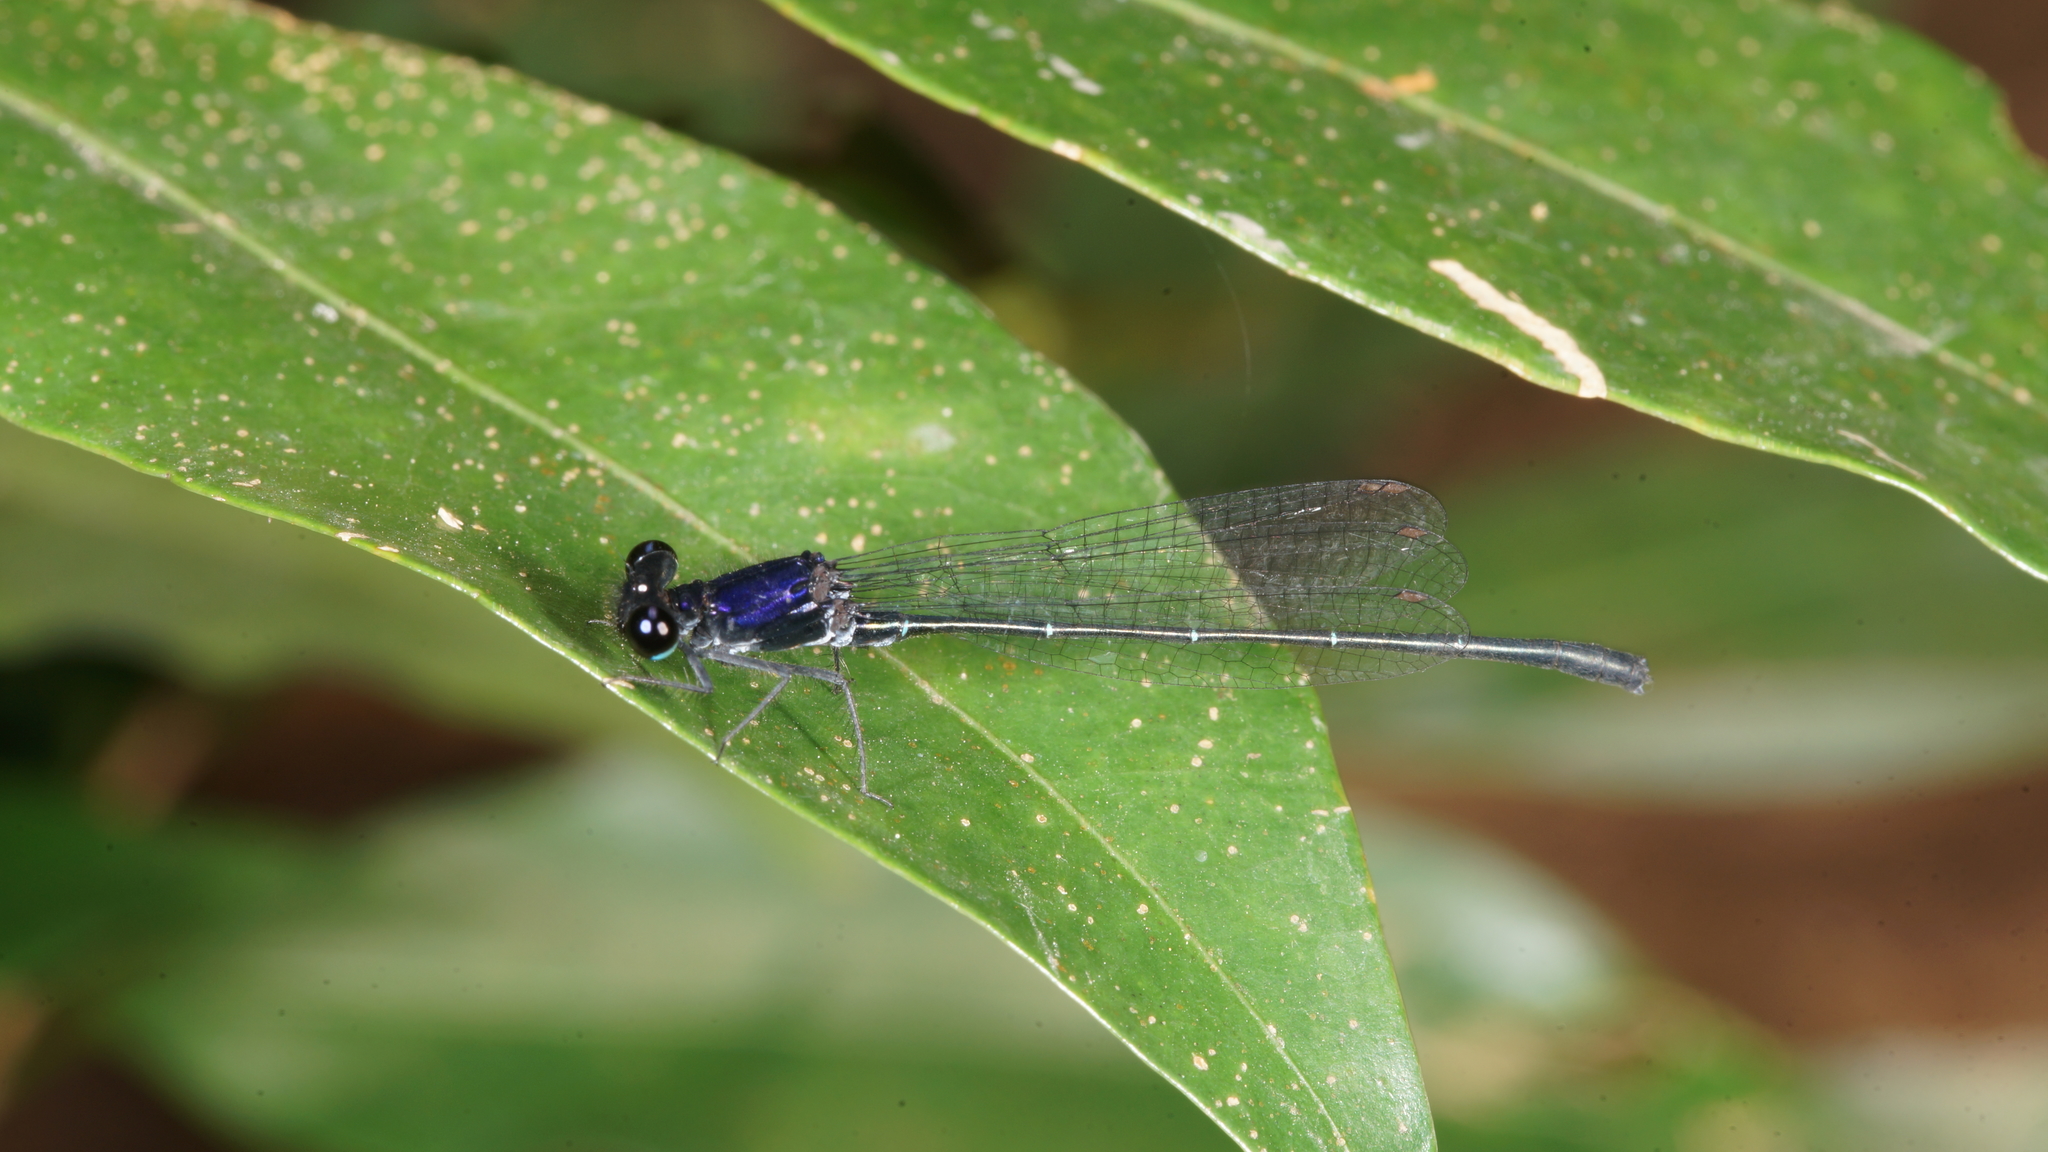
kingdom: Animalia
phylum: Arthropoda
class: Insecta
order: Odonata
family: Platycnemididae
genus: Onychargia
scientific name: Onychargia atrocyana
